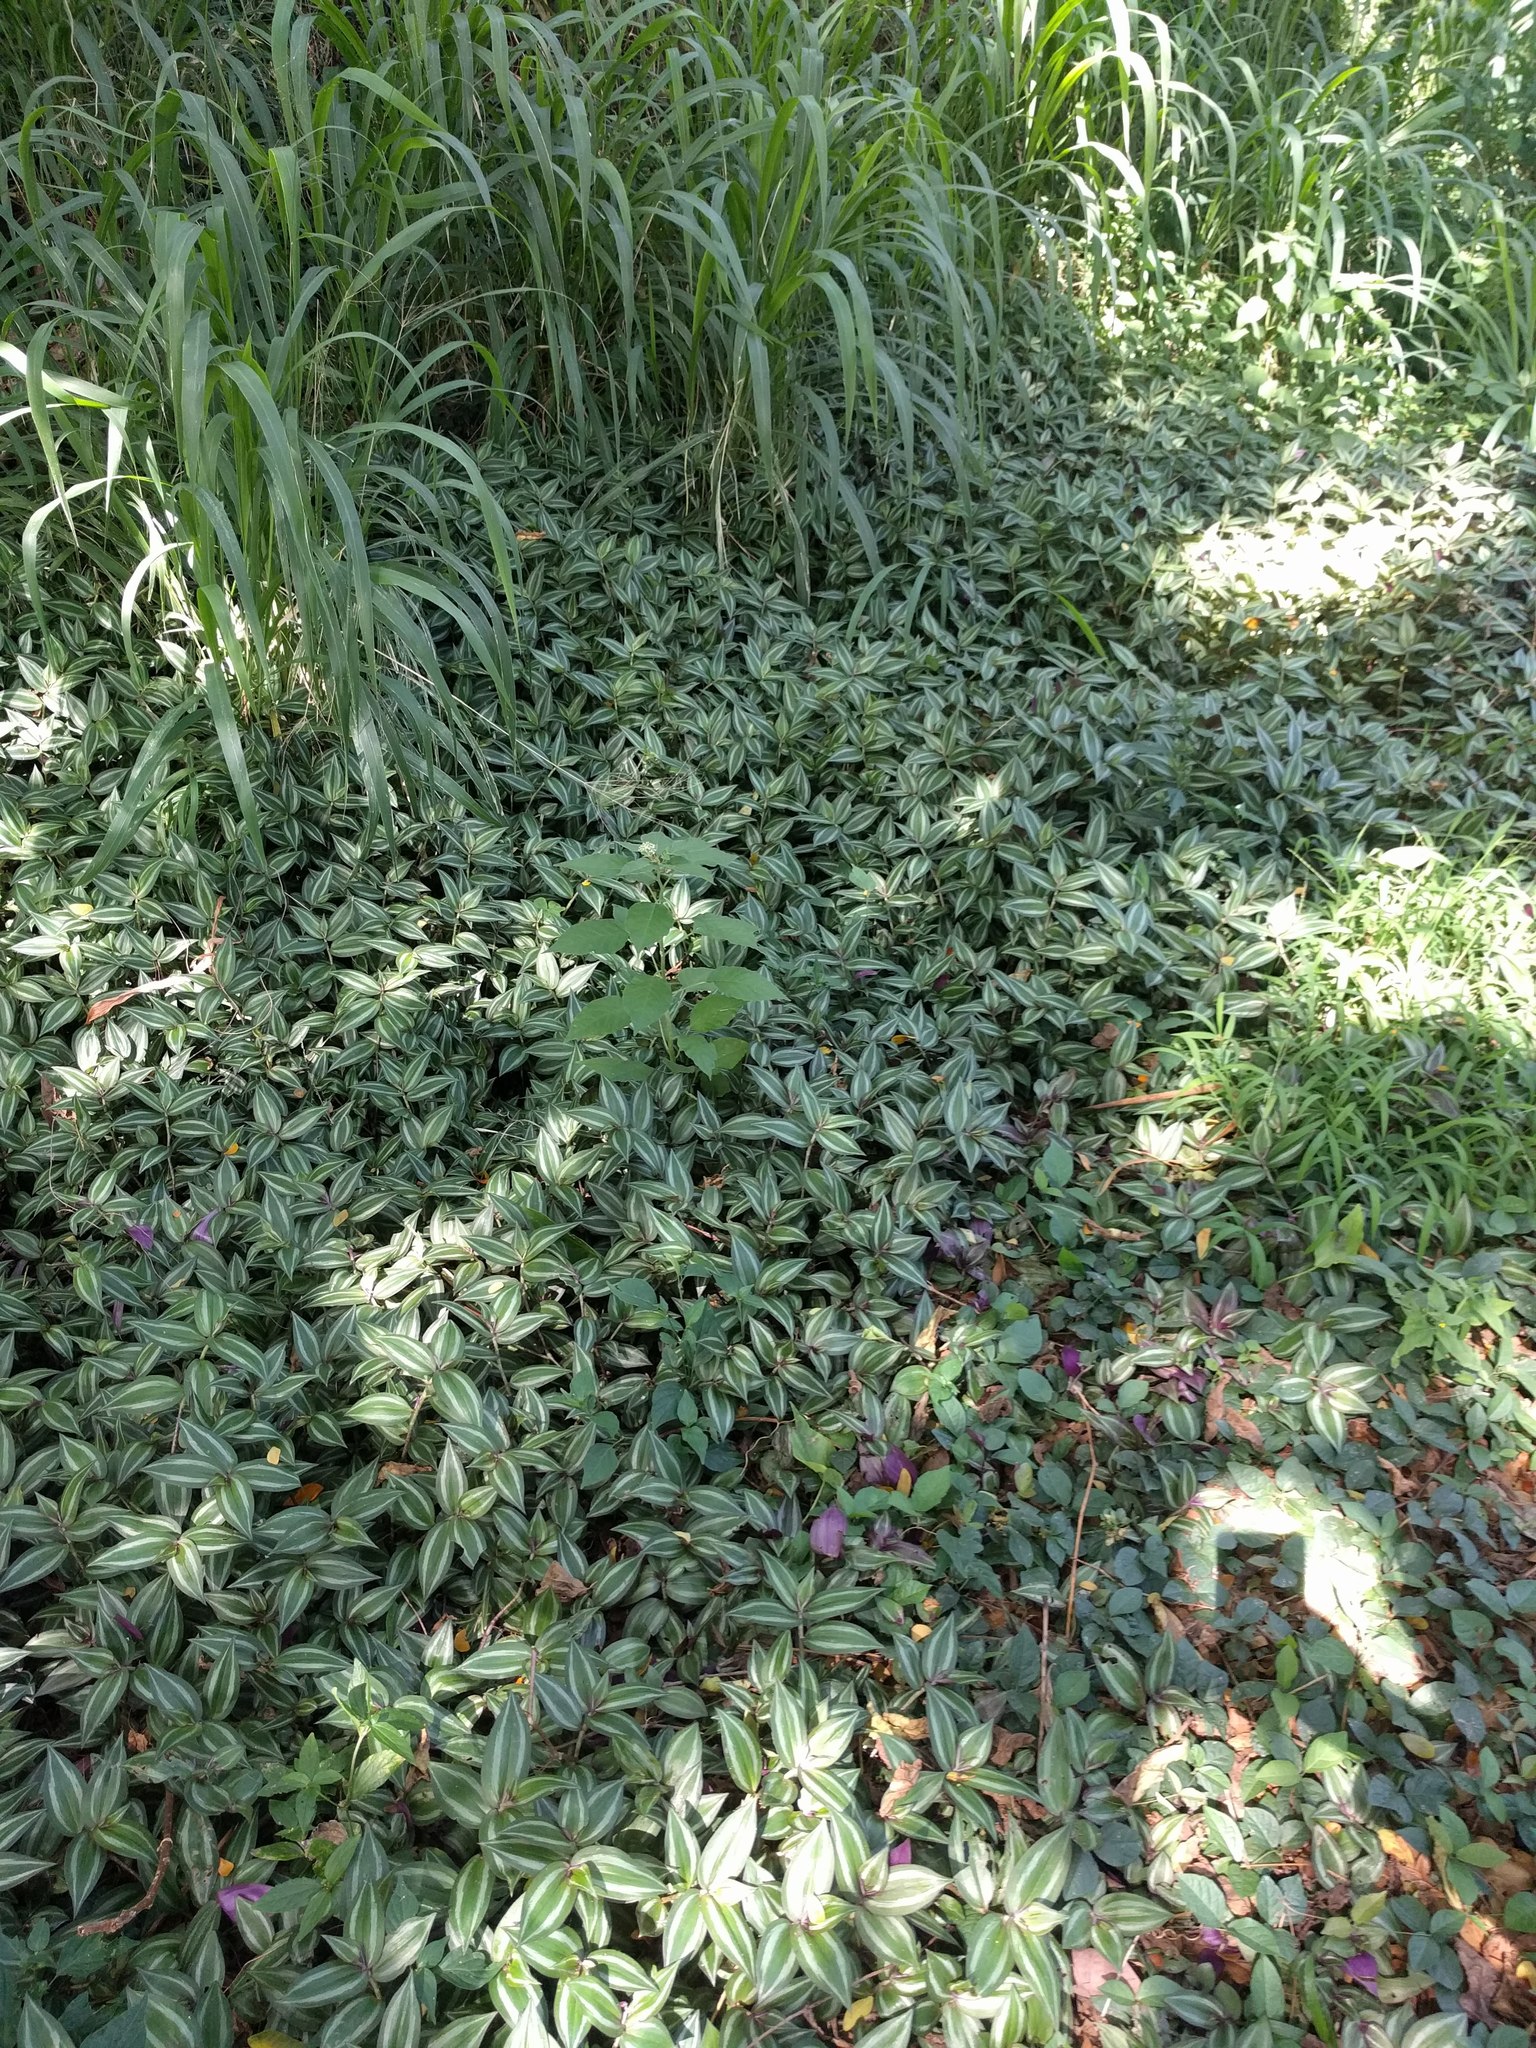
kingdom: Plantae
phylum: Tracheophyta
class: Liliopsida
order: Commelinales
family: Commelinaceae
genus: Tradescantia
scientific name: Tradescantia zebrina
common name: Inchplant
